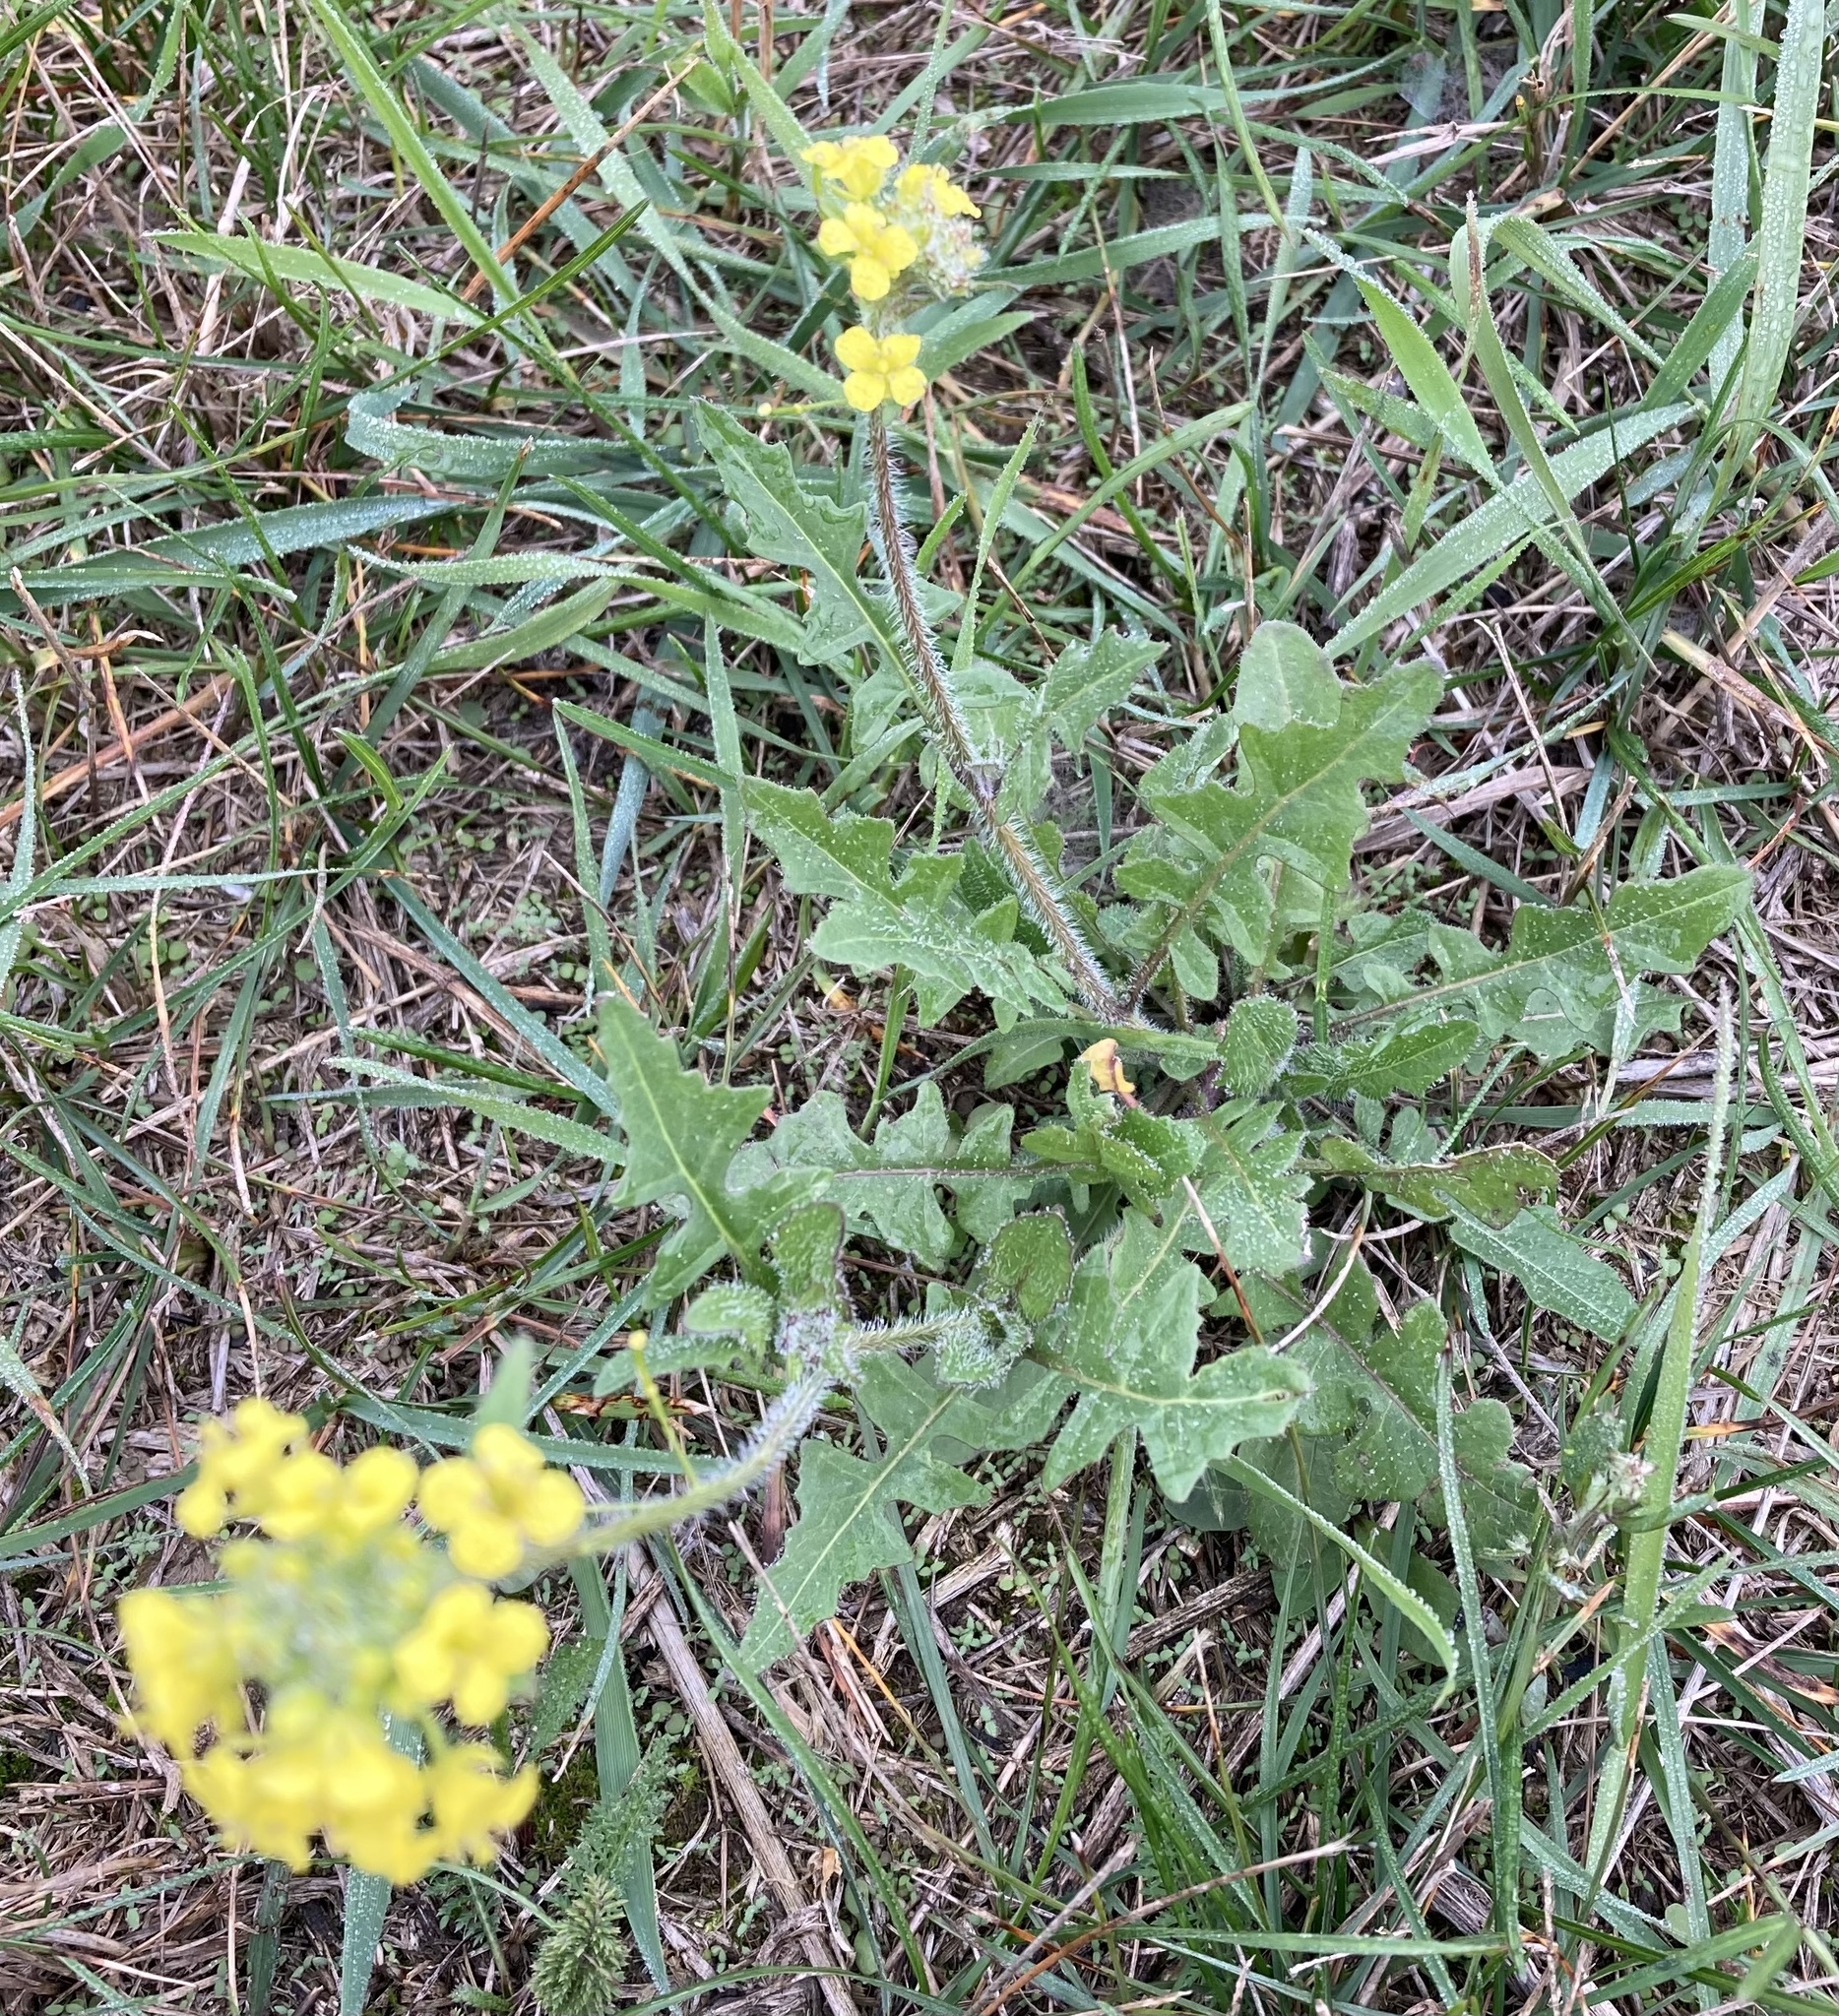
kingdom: Plantae
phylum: Tracheophyta
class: Magnoliopsida
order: Brassicales
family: Brassicaceae
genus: Sisymbrium
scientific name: Sisymbrium loeselii
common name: False london-rocket
